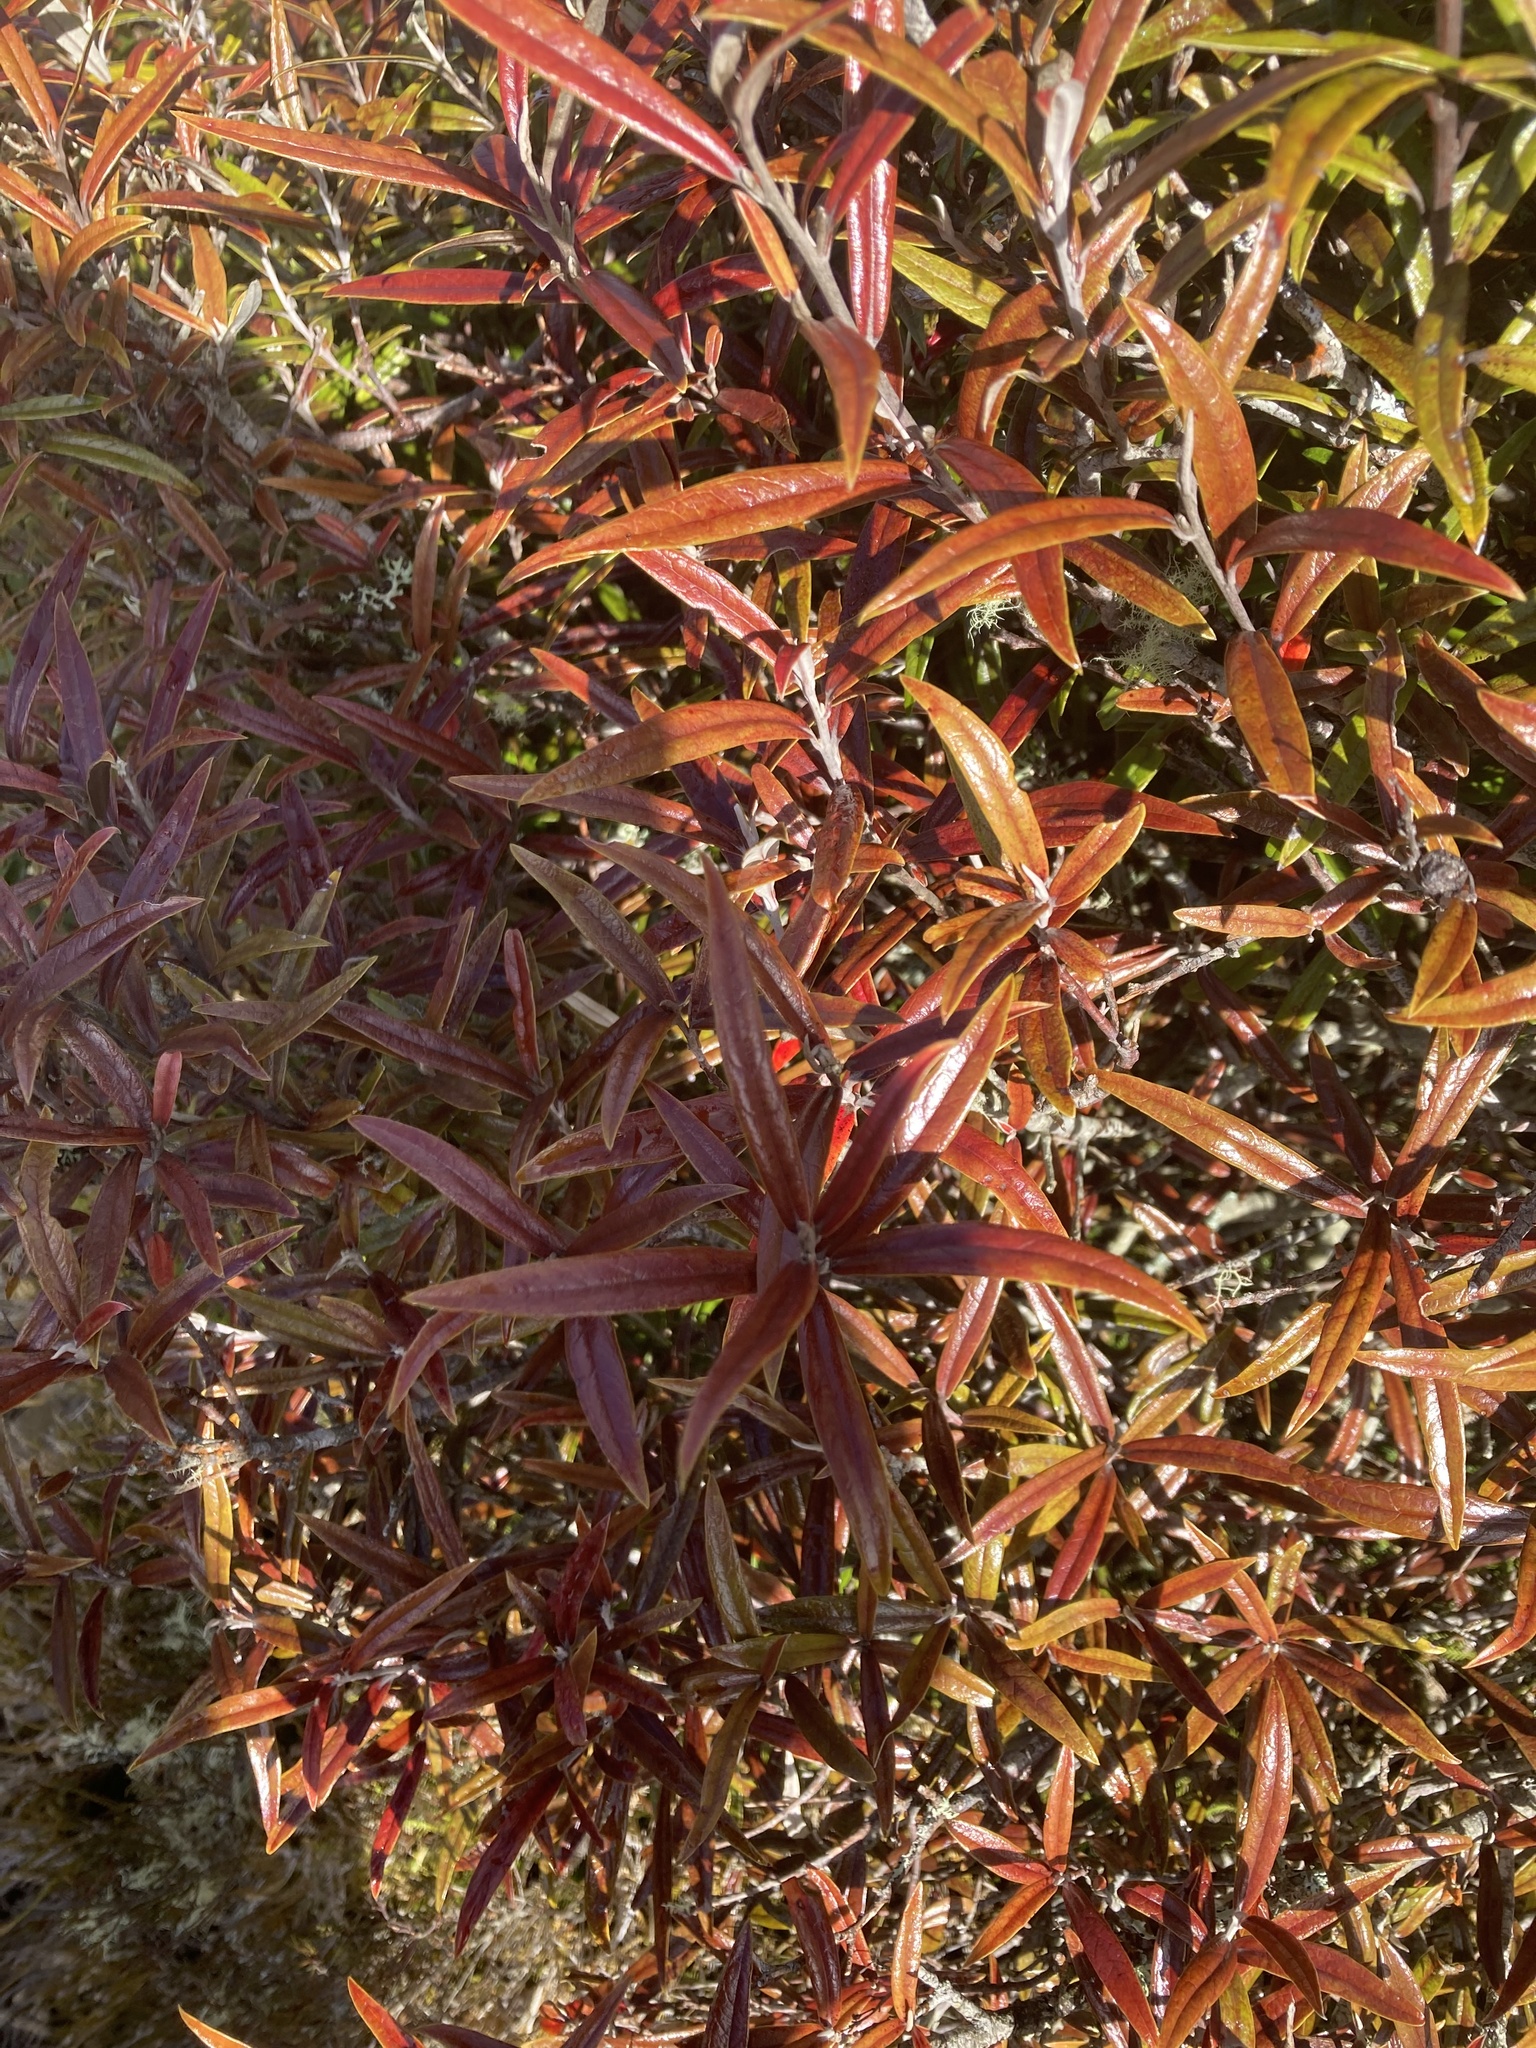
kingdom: Plantae
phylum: Tracheophyta
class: Magnoliopsida
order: Asterales
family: Argophyllaceae
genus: Corokia
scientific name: Corokia buddleioides
